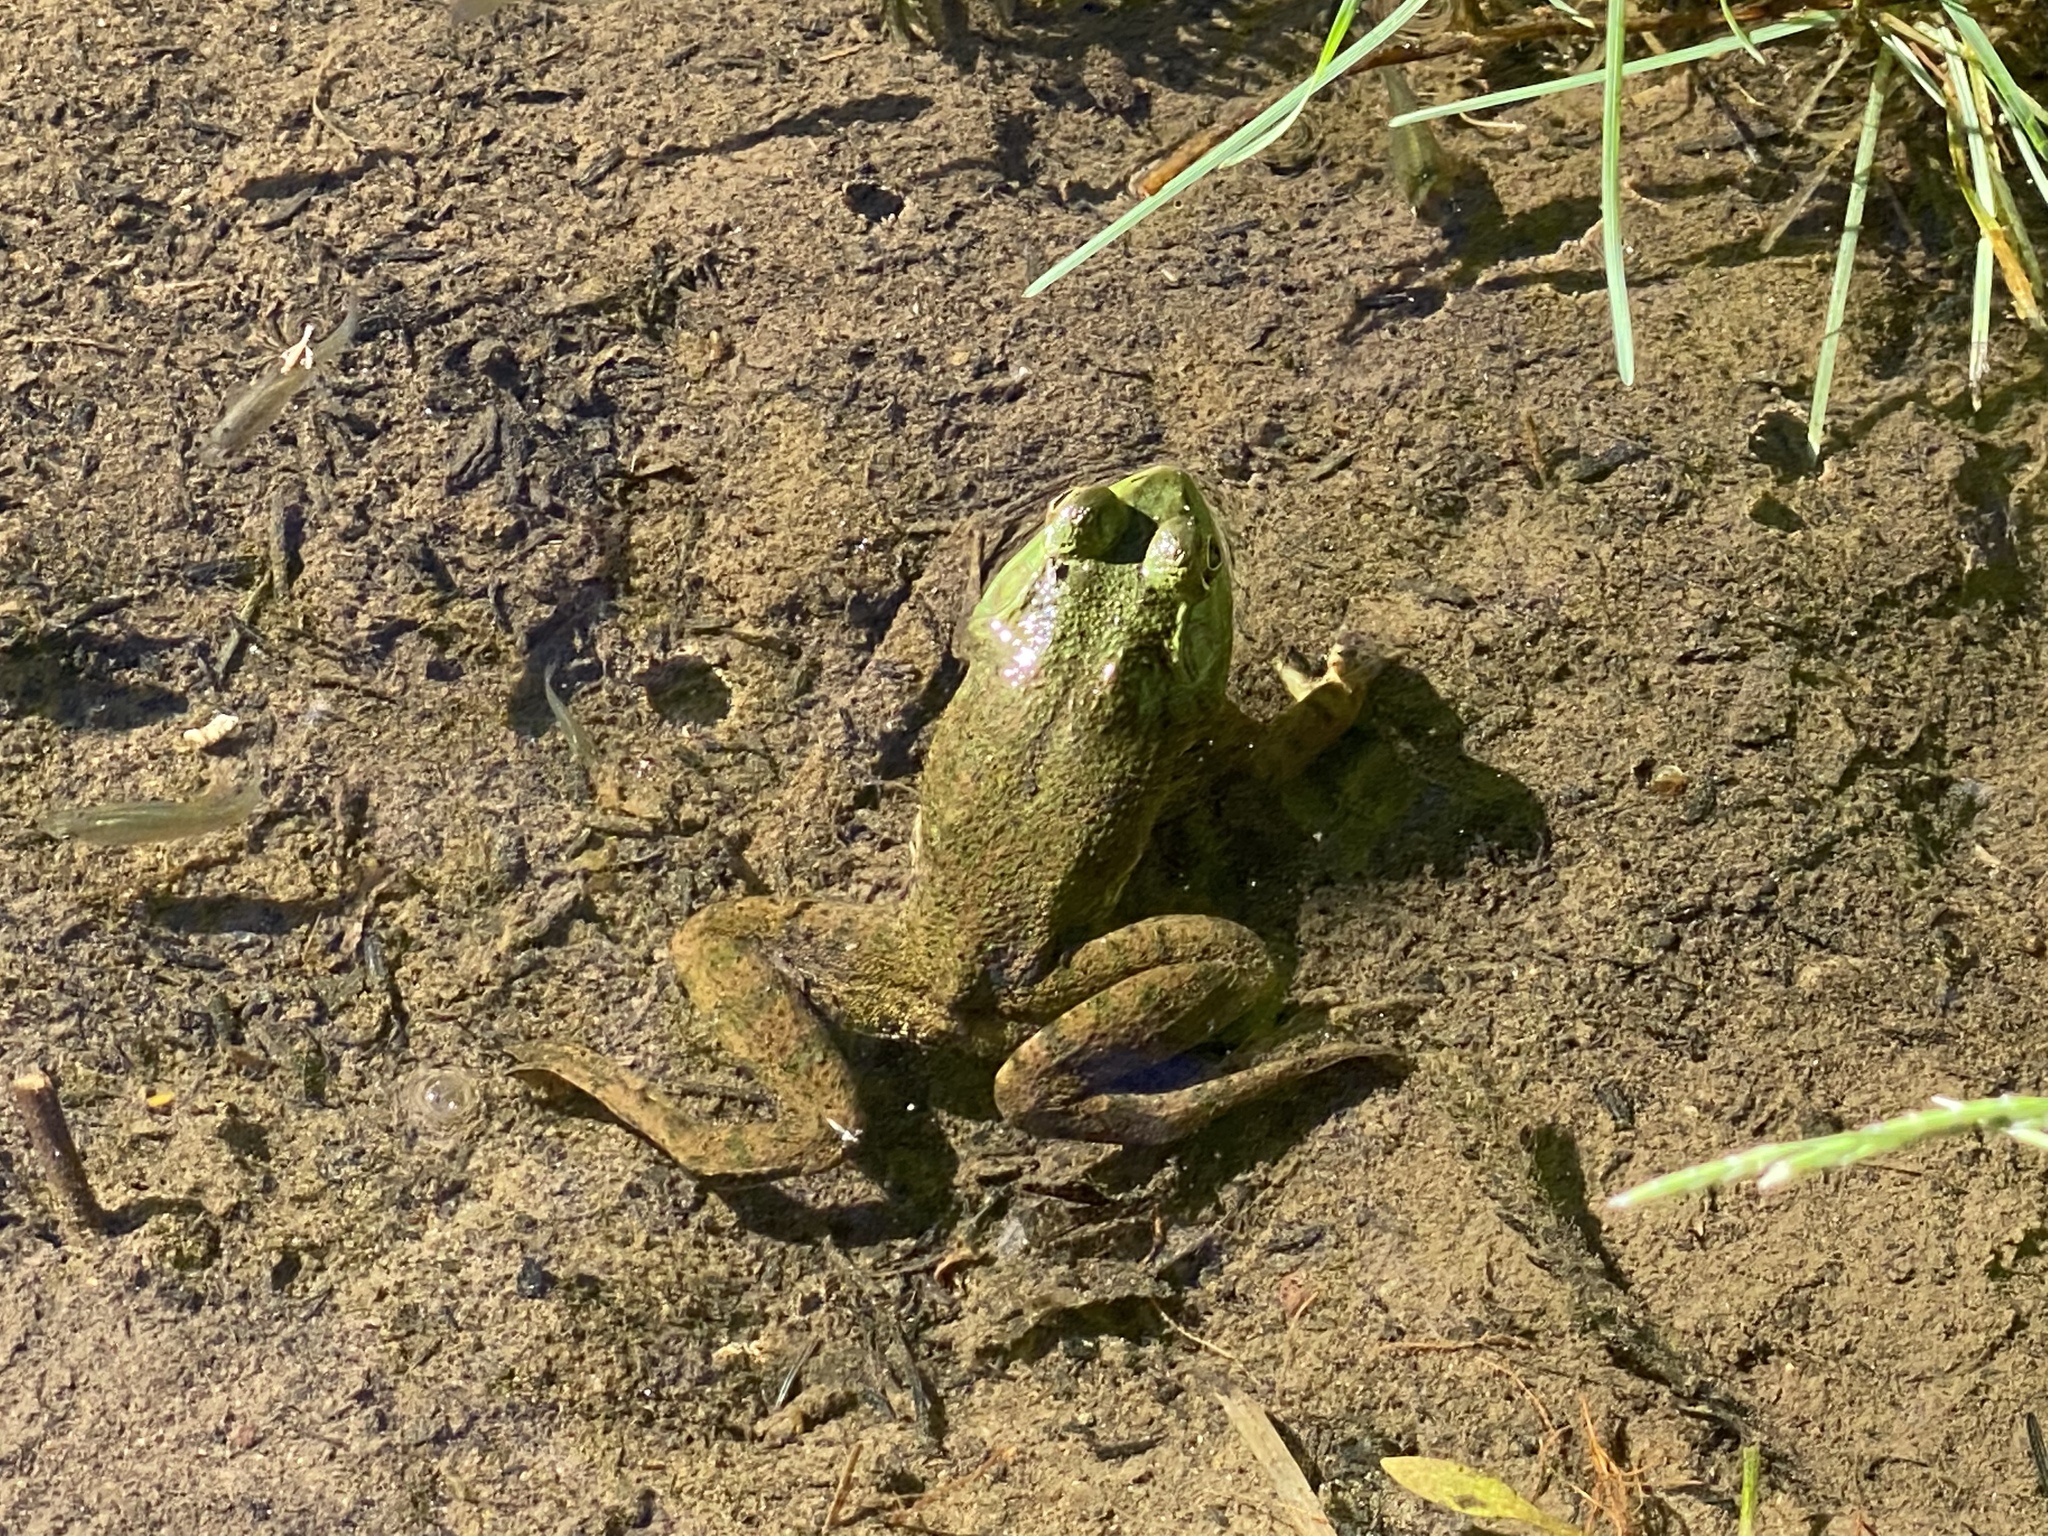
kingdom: Animalia
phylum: Chordata
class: Amphibia
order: Anura
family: Ranidae
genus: Lithobates
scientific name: Lithobates catesbeianus
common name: American bullfrog
